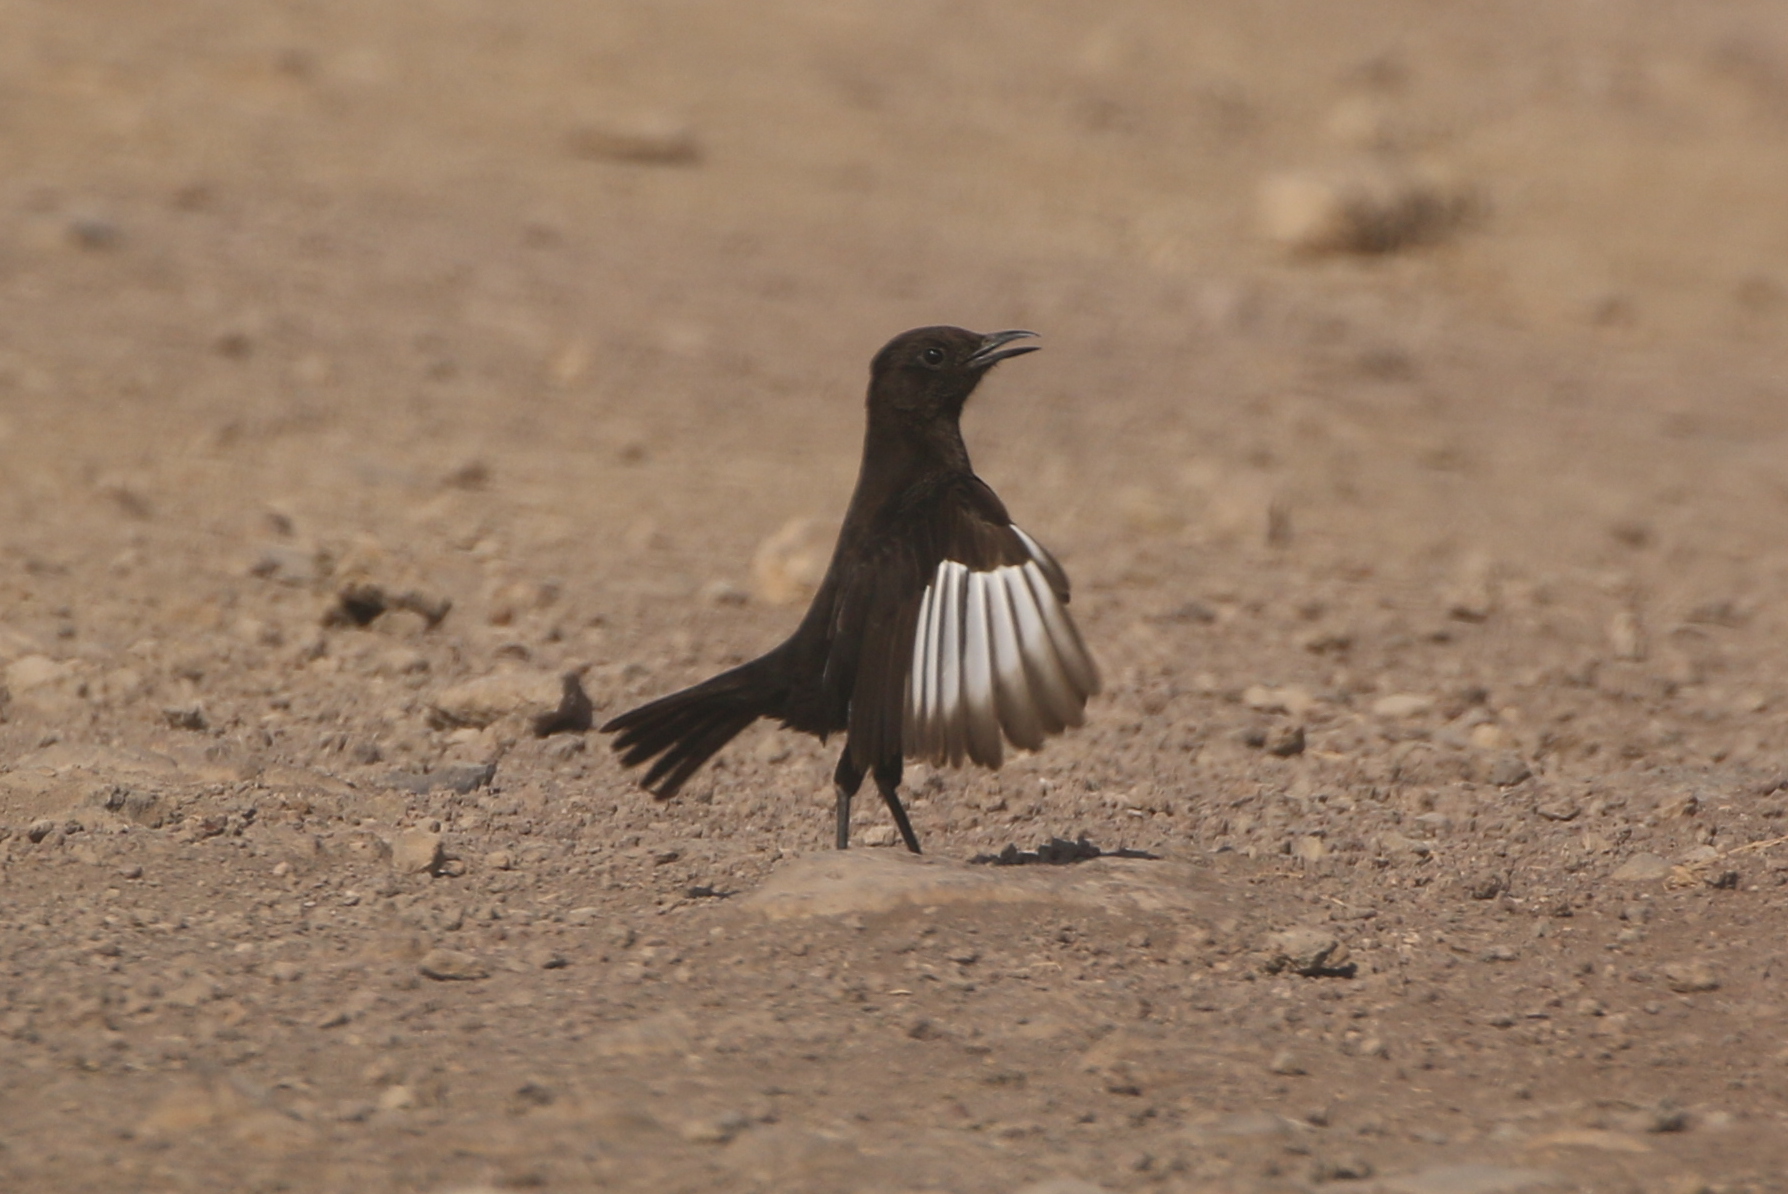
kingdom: Animalia
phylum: Chordata
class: Aves
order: Passeriformes
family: Muscicapidae
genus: Myrmecocichla
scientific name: Myrmecocichla aethiops
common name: Anteater chat
